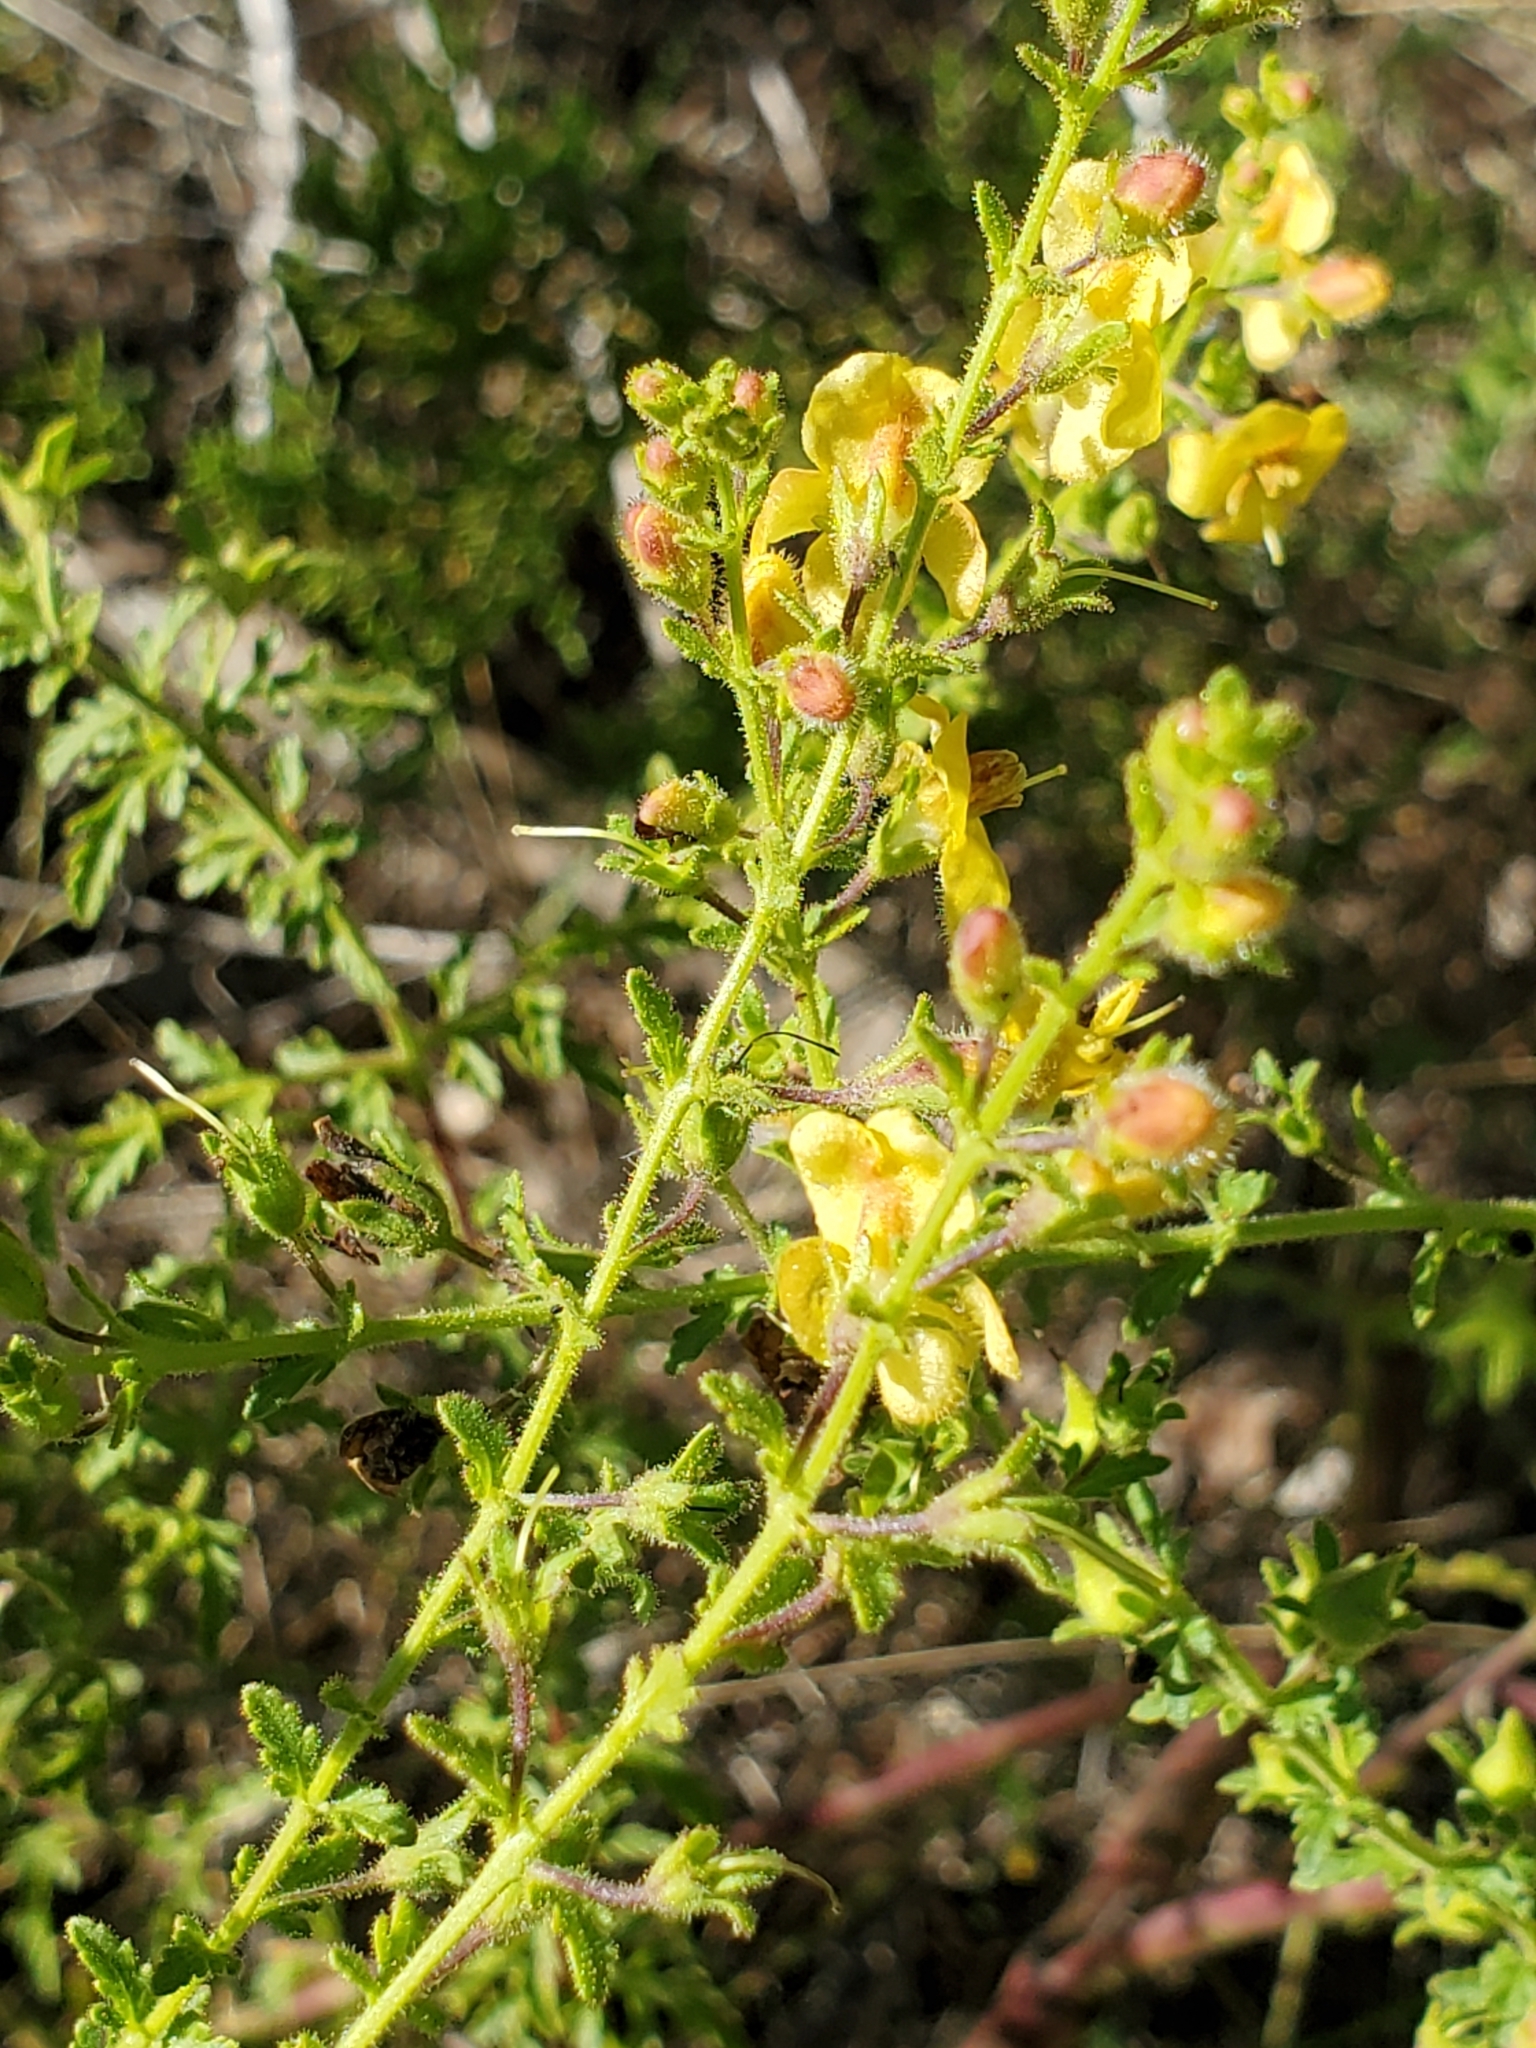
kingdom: Plantae
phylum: Tracheophyta
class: Magnoliopsida
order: Lamiales
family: Orobanchaceae
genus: Seymeria
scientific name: Seymeria bipinnatisecta
